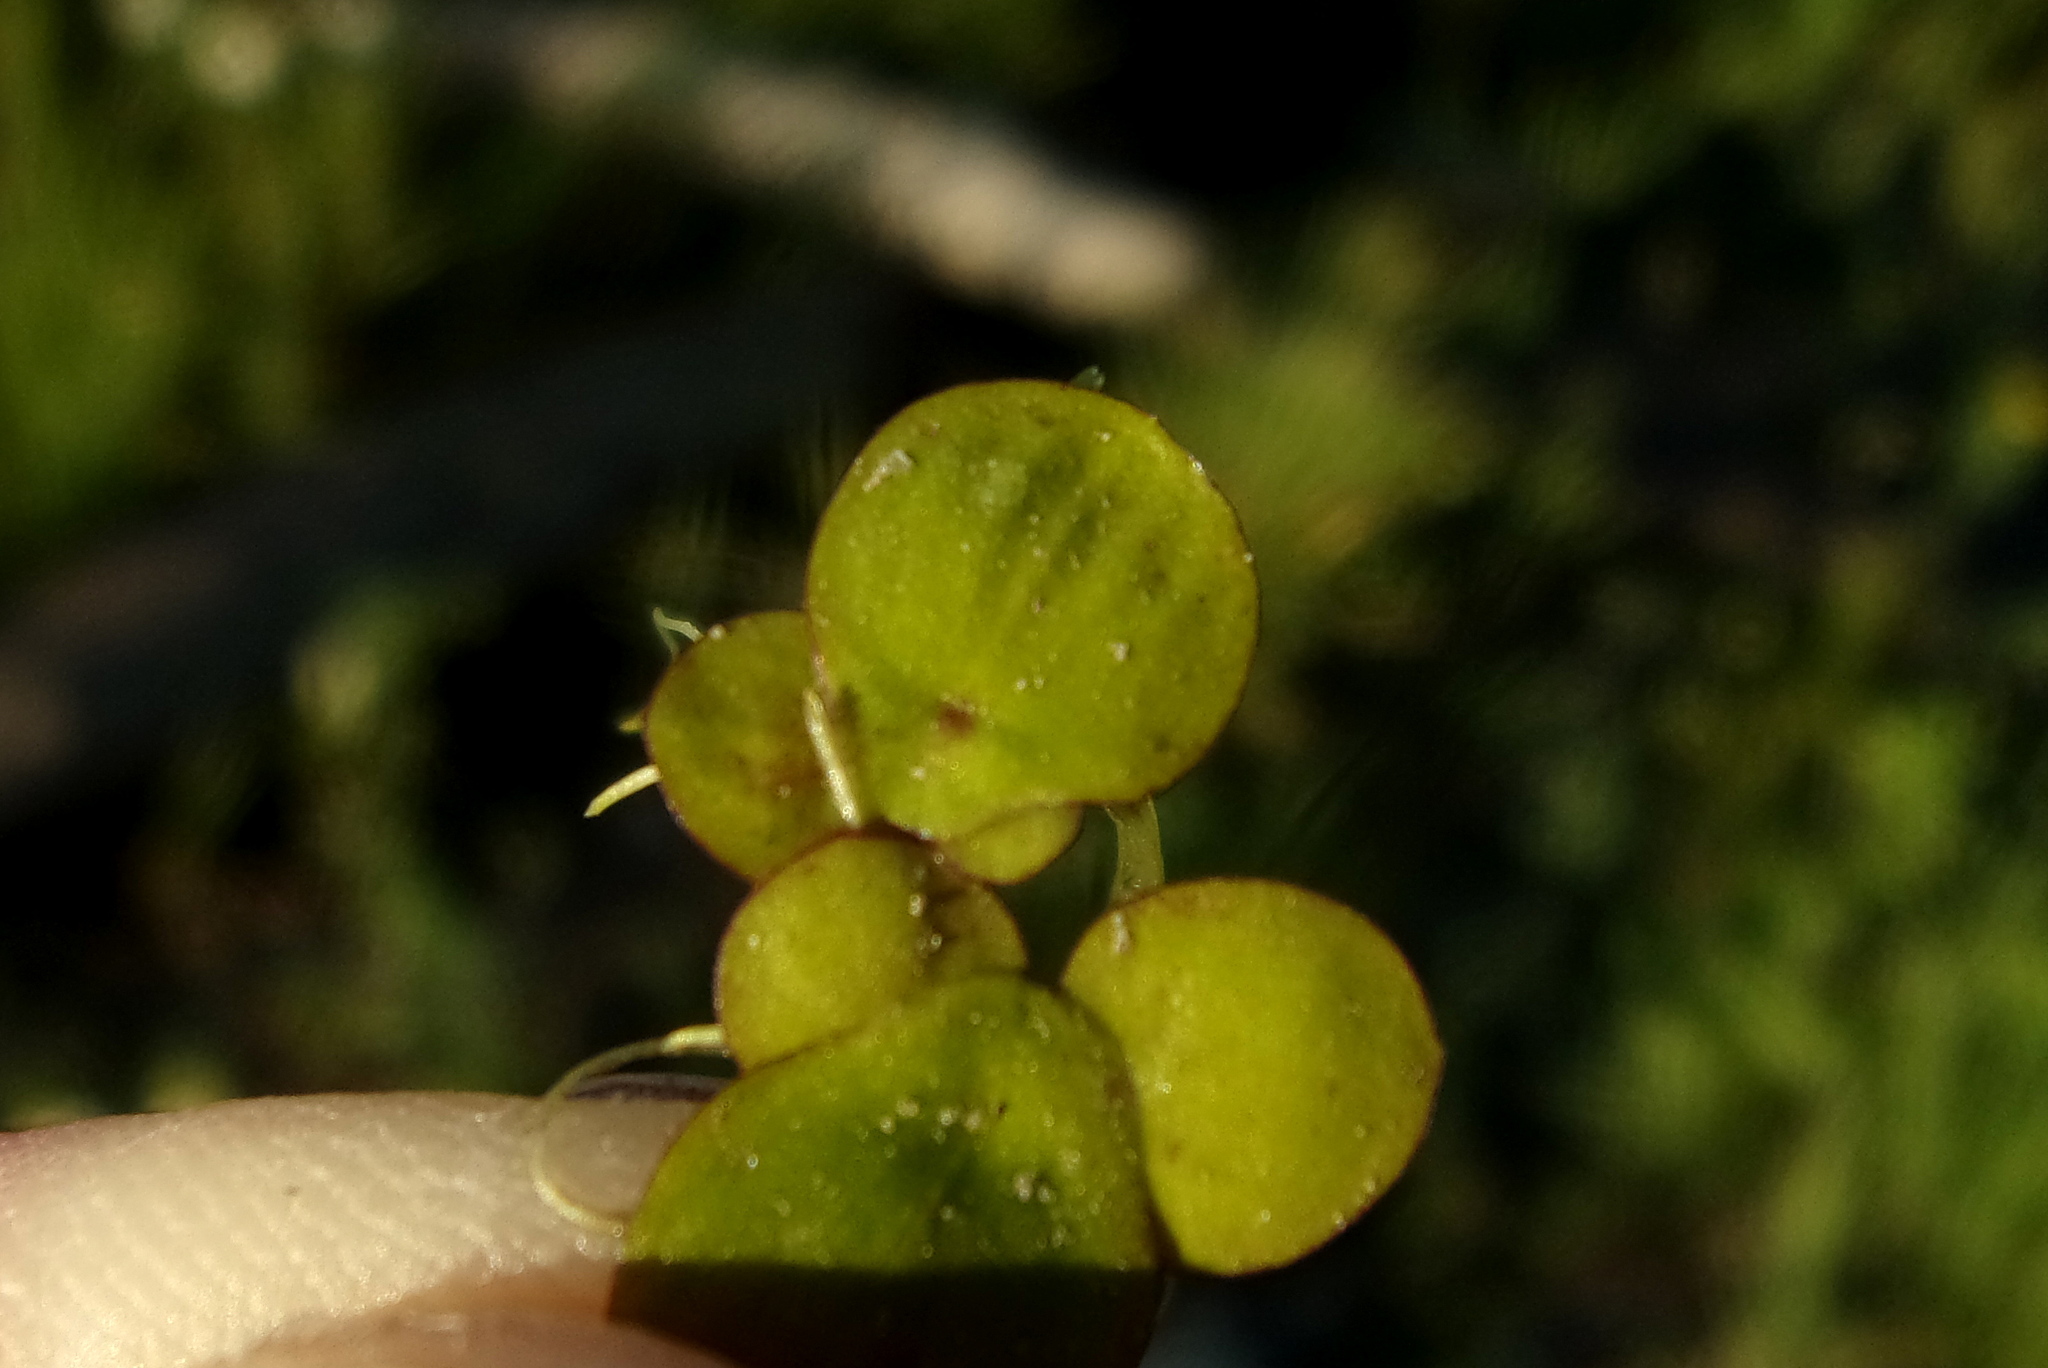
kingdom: Plantae
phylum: Tracheophyta
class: Liliopsida
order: Alismatales
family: Araceae
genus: Spirodela
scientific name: Spirodela polyrhiza
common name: Great duckweed
